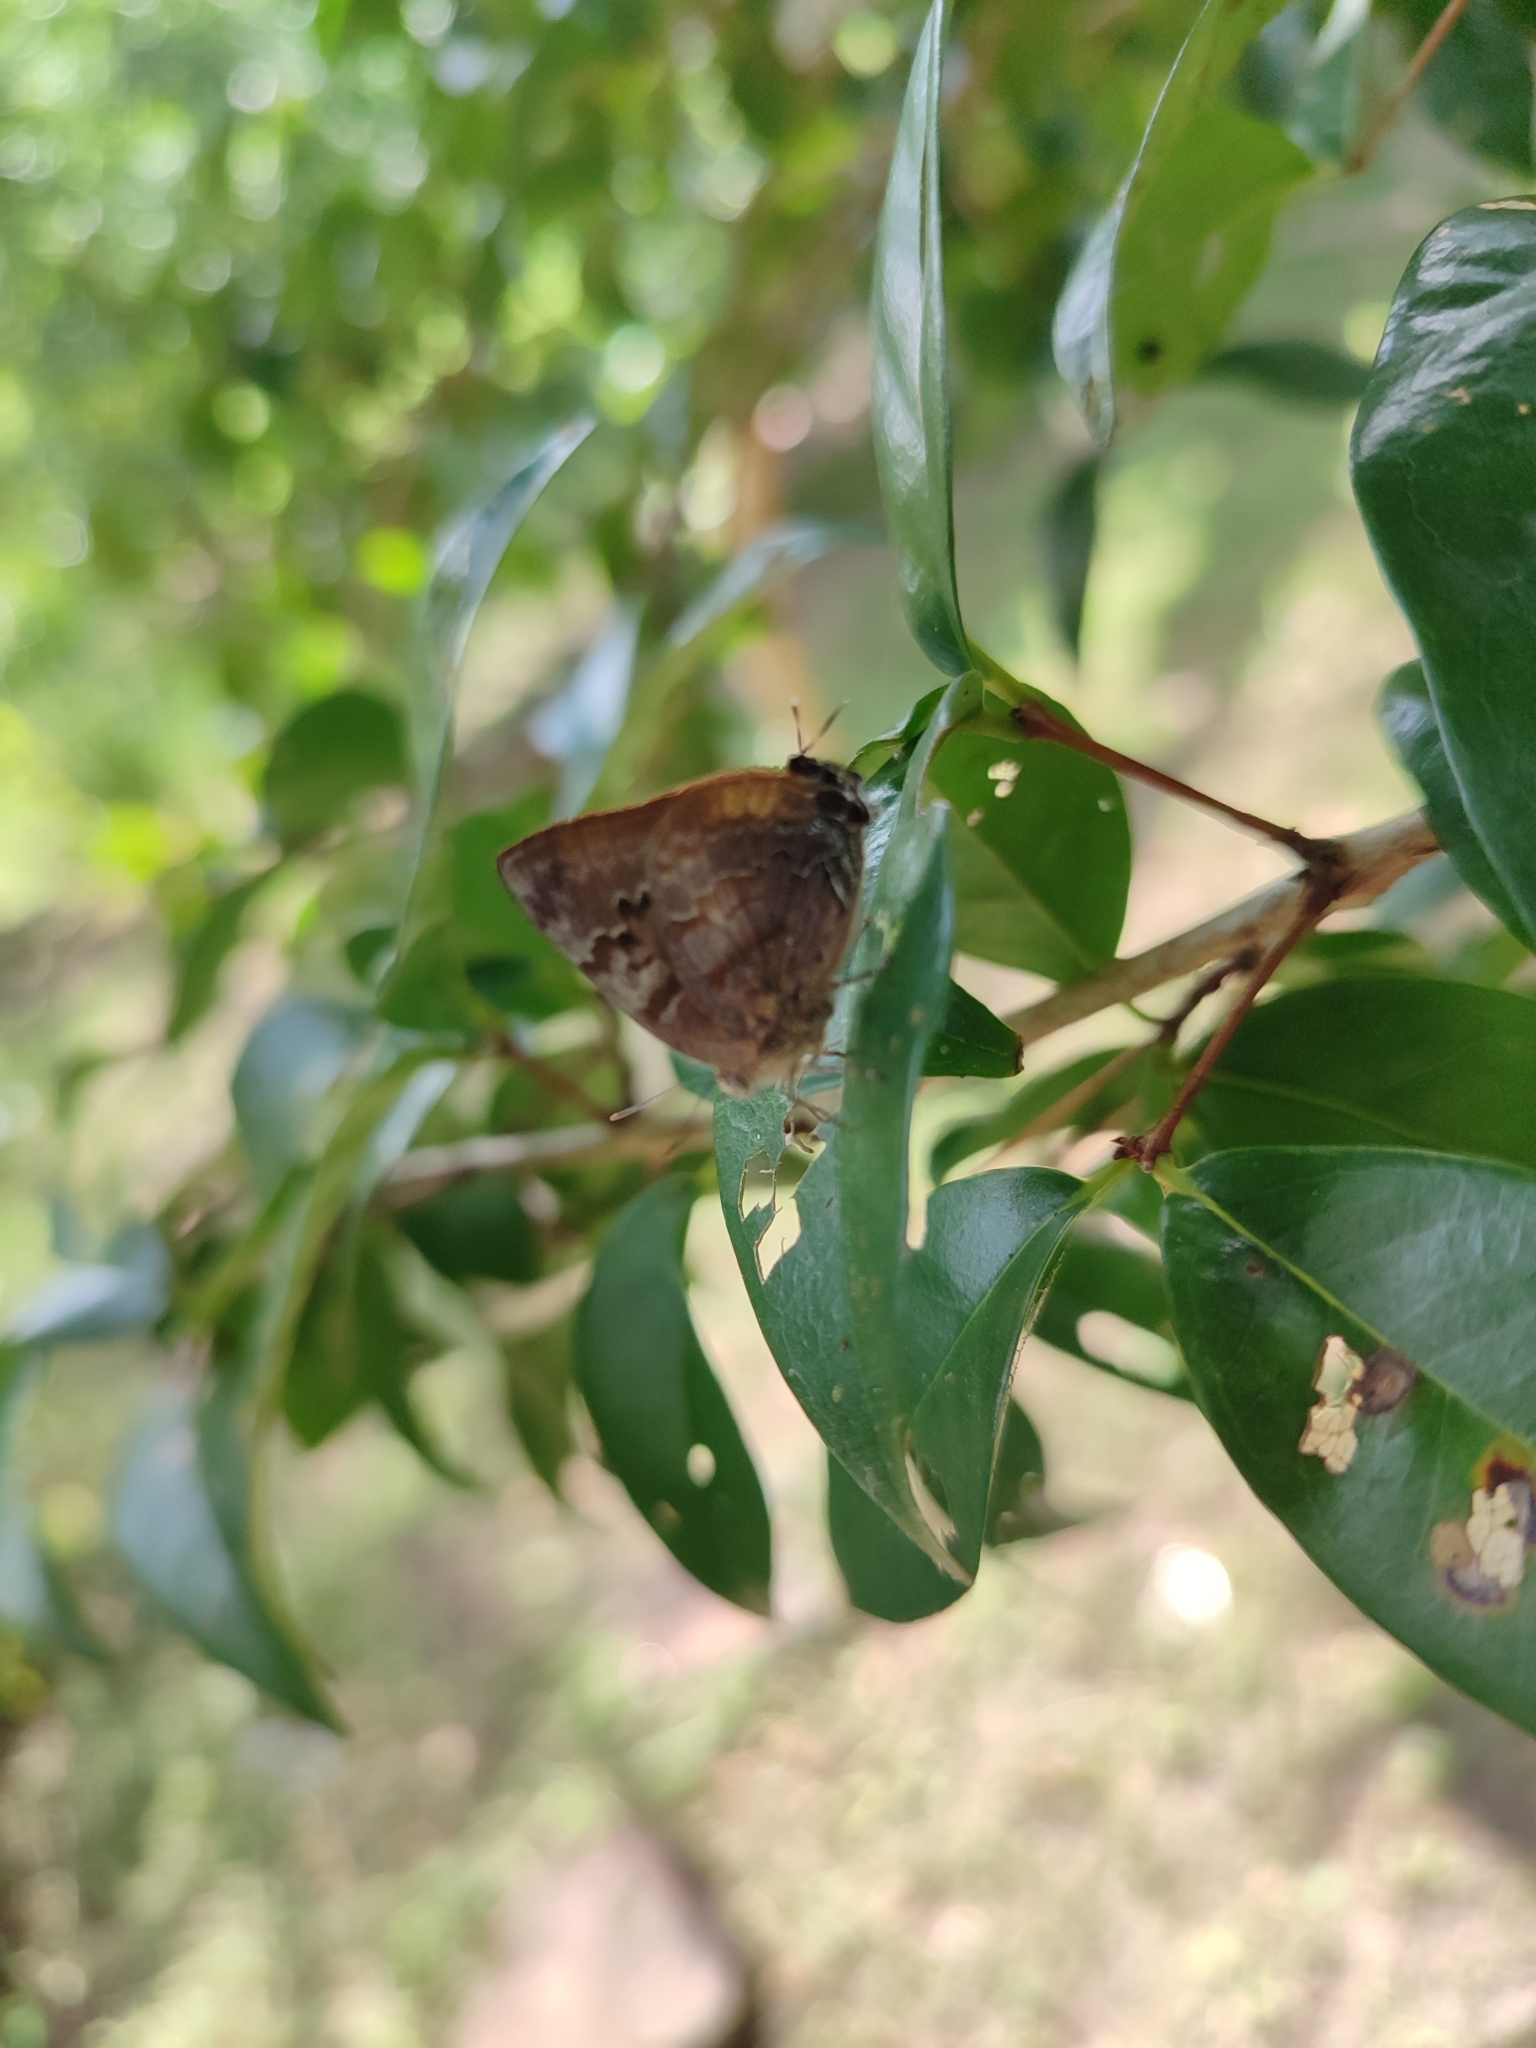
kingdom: Animalia
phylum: Arthropoda
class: Insecta
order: Lepidoptera
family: Lycaenidae
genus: Rekoa
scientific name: Rekoa palegon
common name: Gold-bordered hairstreak
